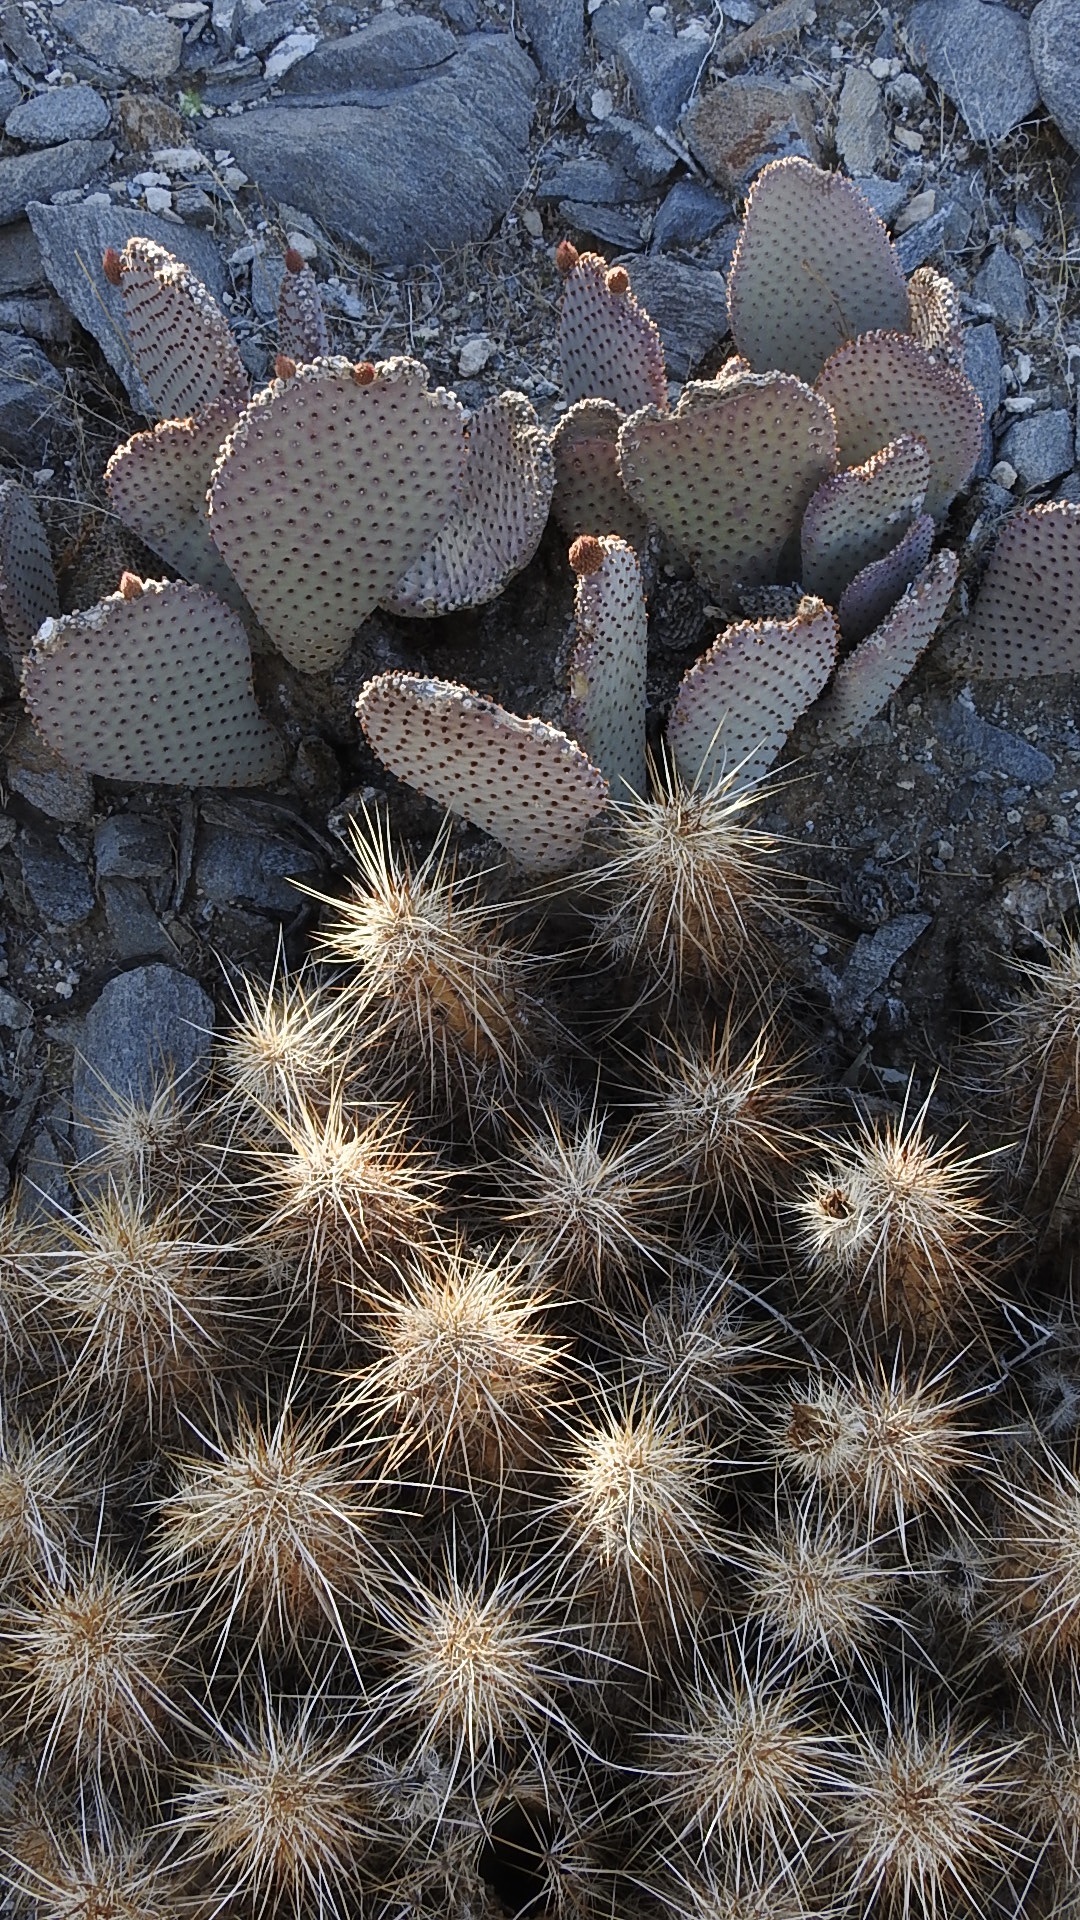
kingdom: Plantae
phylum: Tracheophyta
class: Magnoliopsida
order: Caryophyllales
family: Cactaceae
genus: Echinocereus
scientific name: Echinocereus engelmannii
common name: Engelmann's hedgehog cactus
